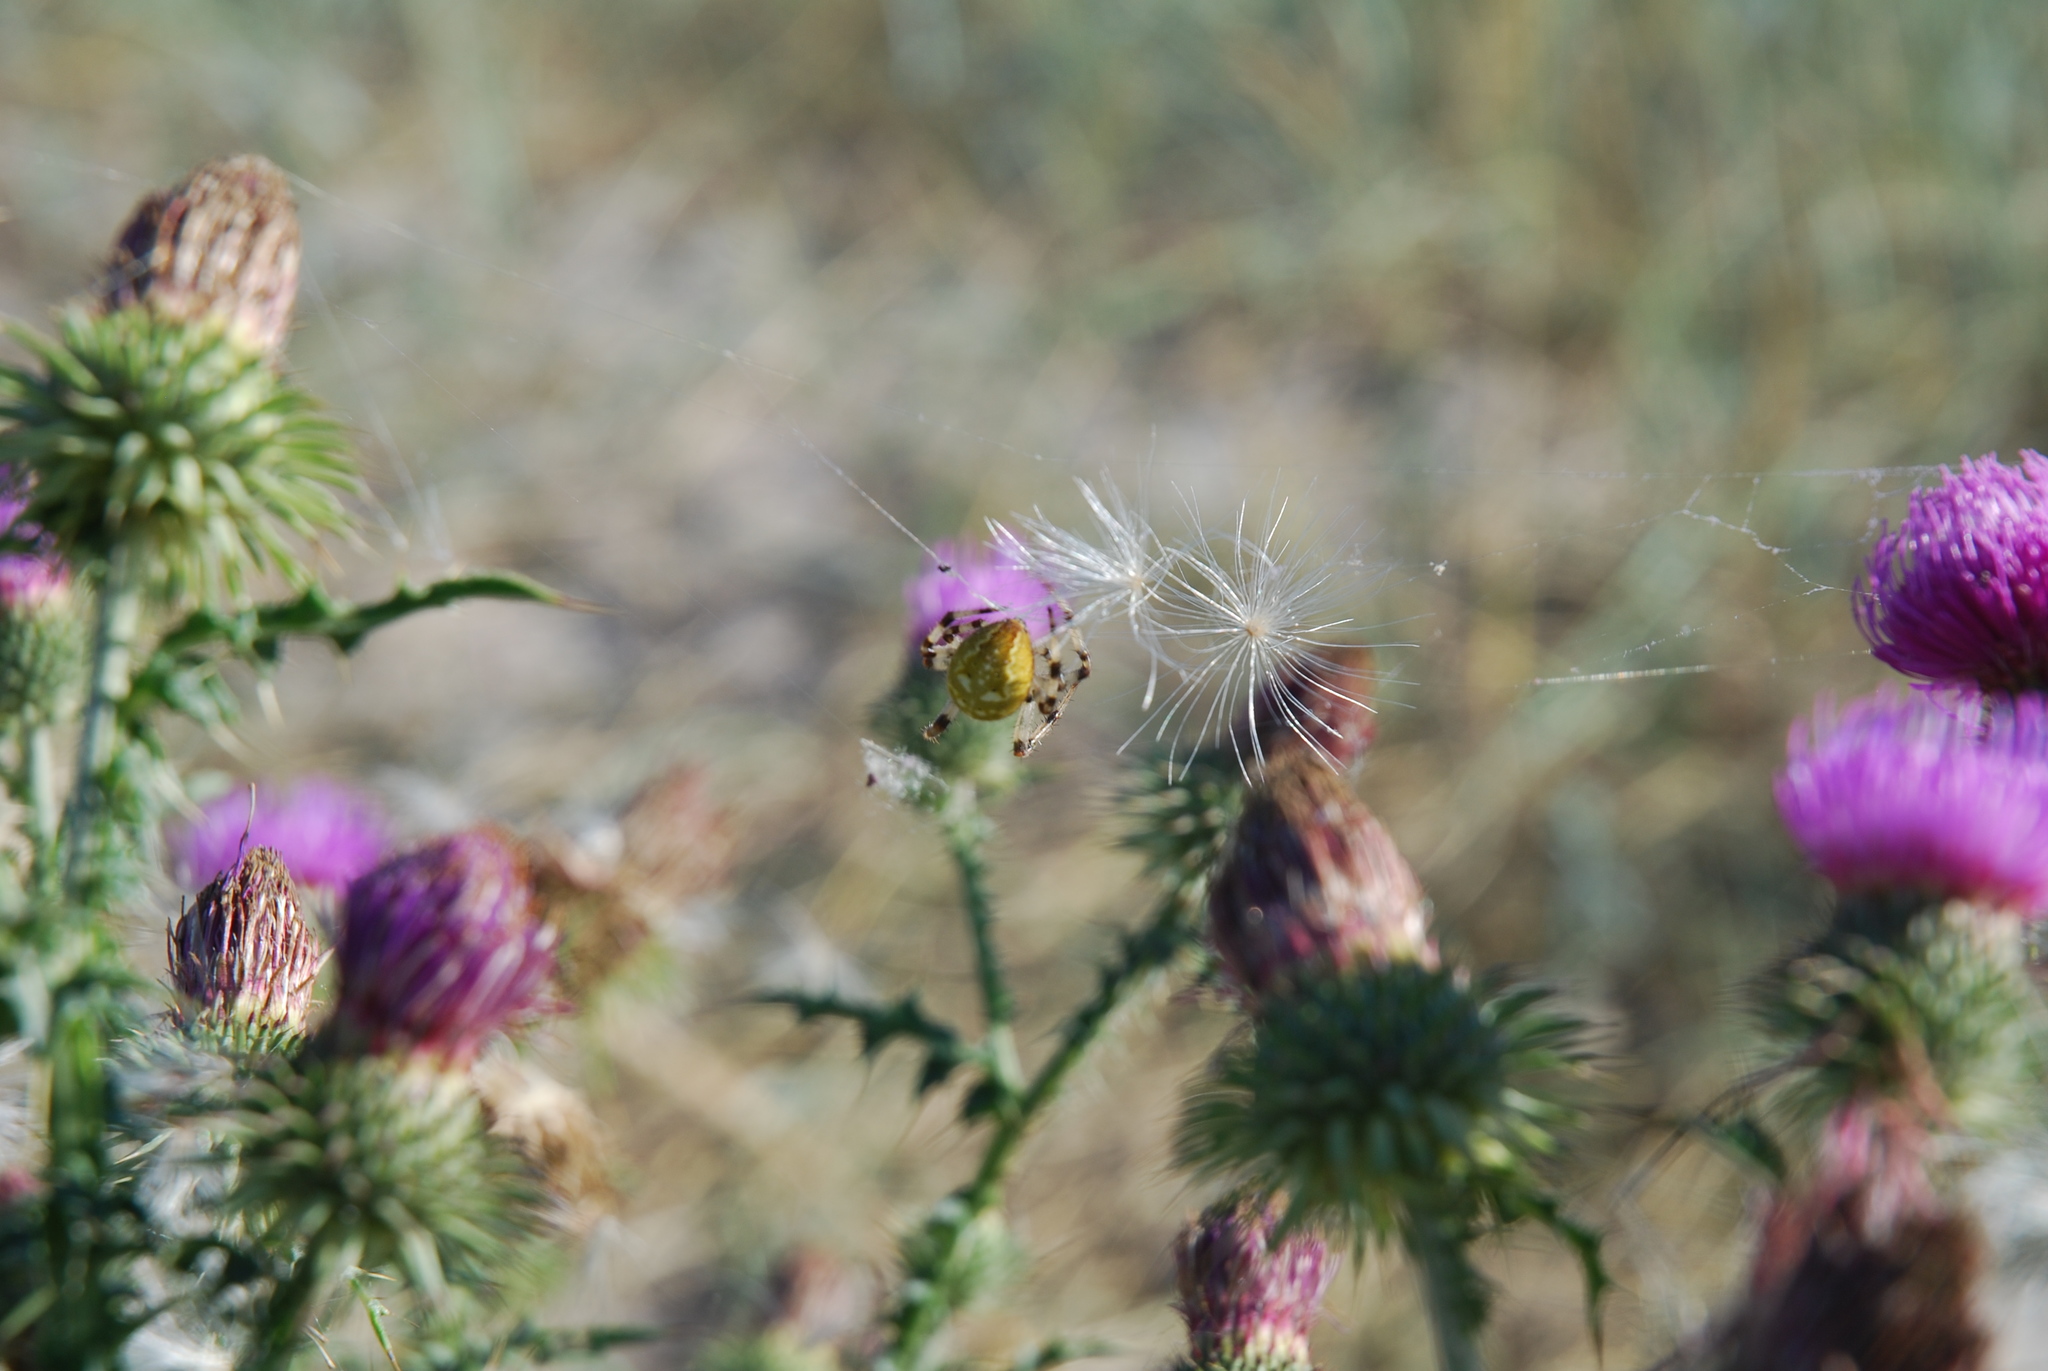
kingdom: Animalia
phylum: Arthropoda
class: Arachnida
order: Araneae
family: Araneidae
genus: Araneus
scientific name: Araneus quadratus
